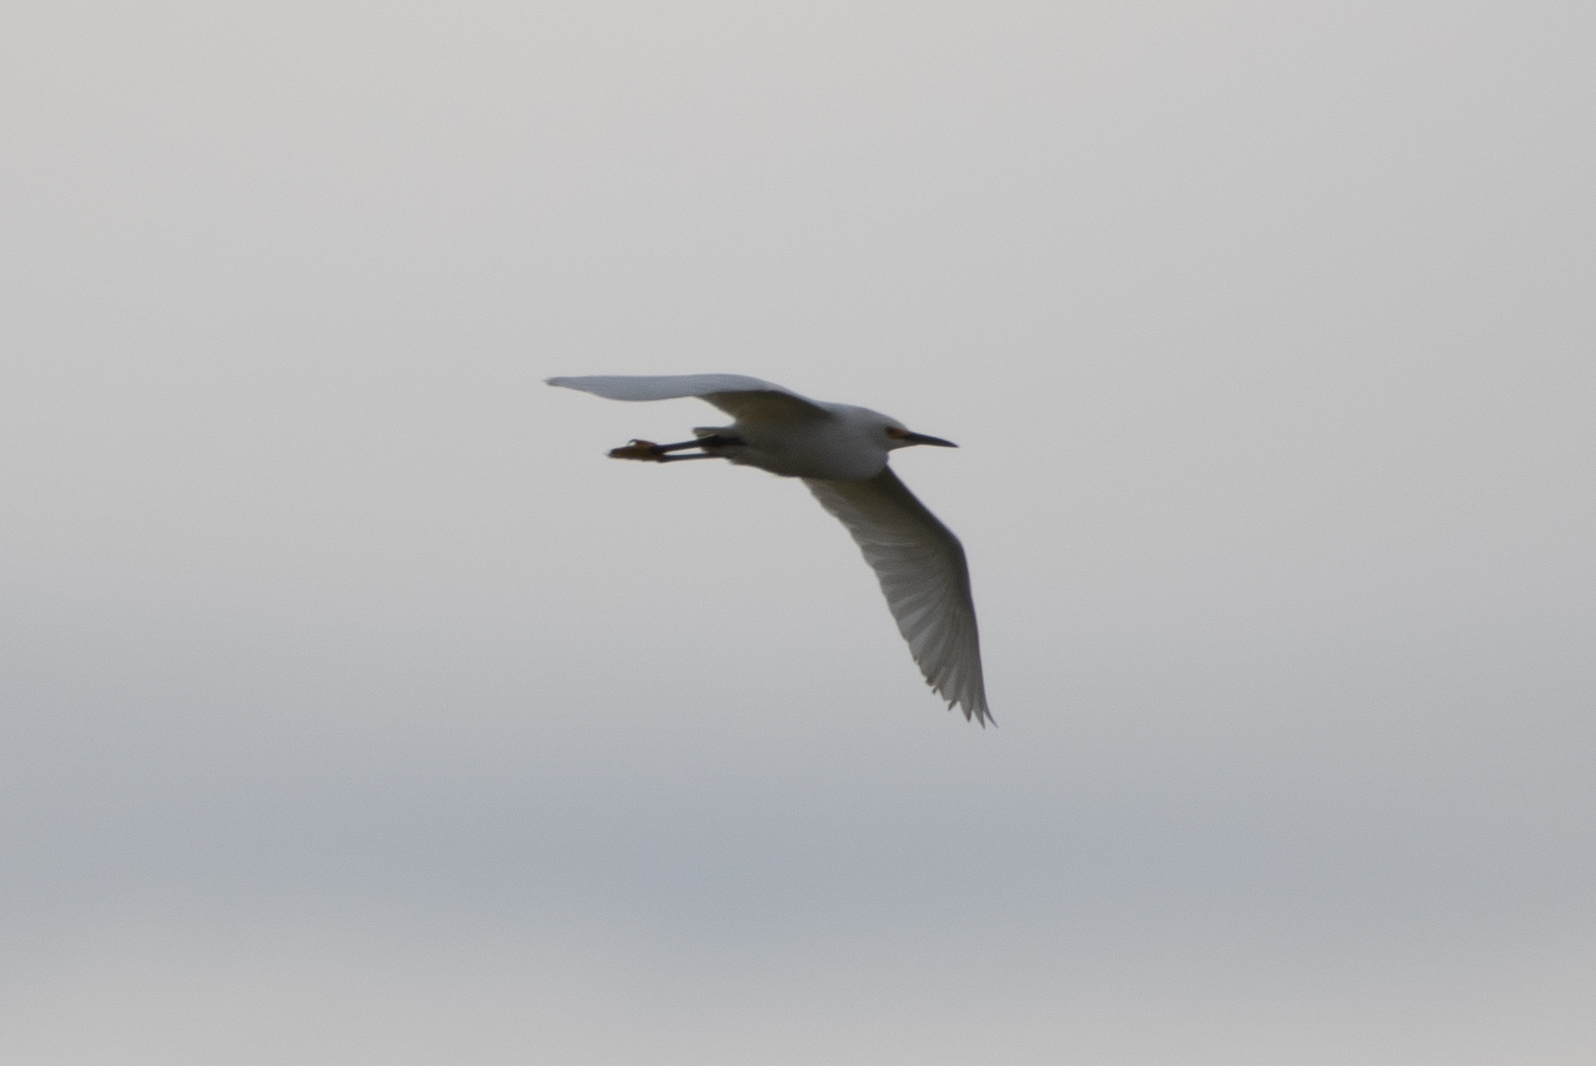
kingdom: Animalia
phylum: Chordata
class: Aves
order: Pelecaniformes
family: Ardeidae
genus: Egretta
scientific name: Egretta thula
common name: Snowy egret
